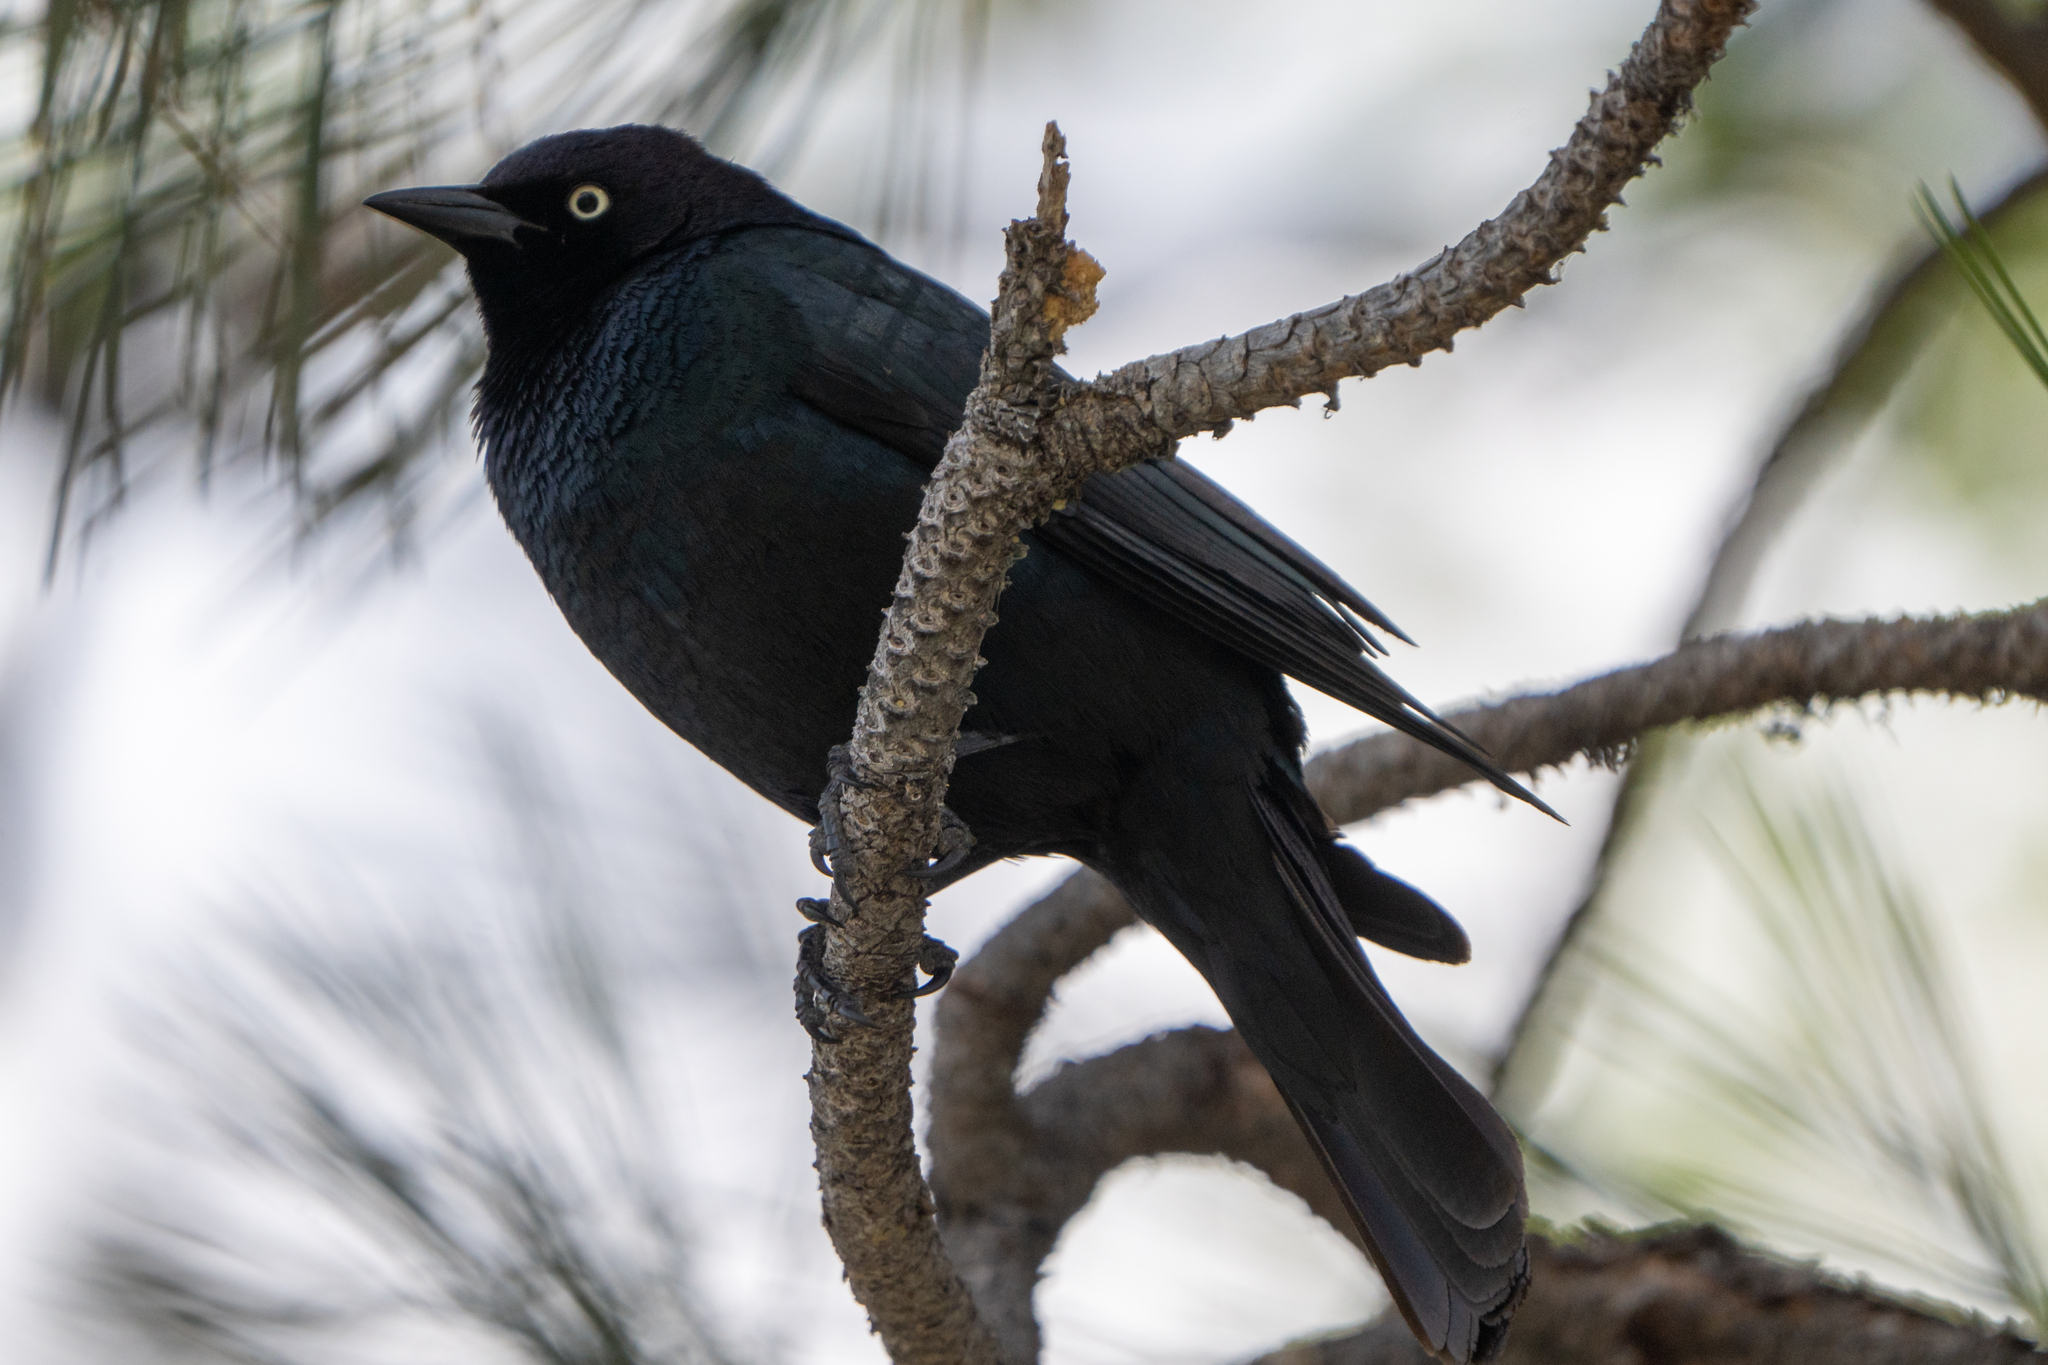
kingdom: Animalia
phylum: Chordata
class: Aves
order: Passeriformes
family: Icteridae
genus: Euphagus
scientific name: Euphagus cyanocephalus
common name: Brewer's blackbird
